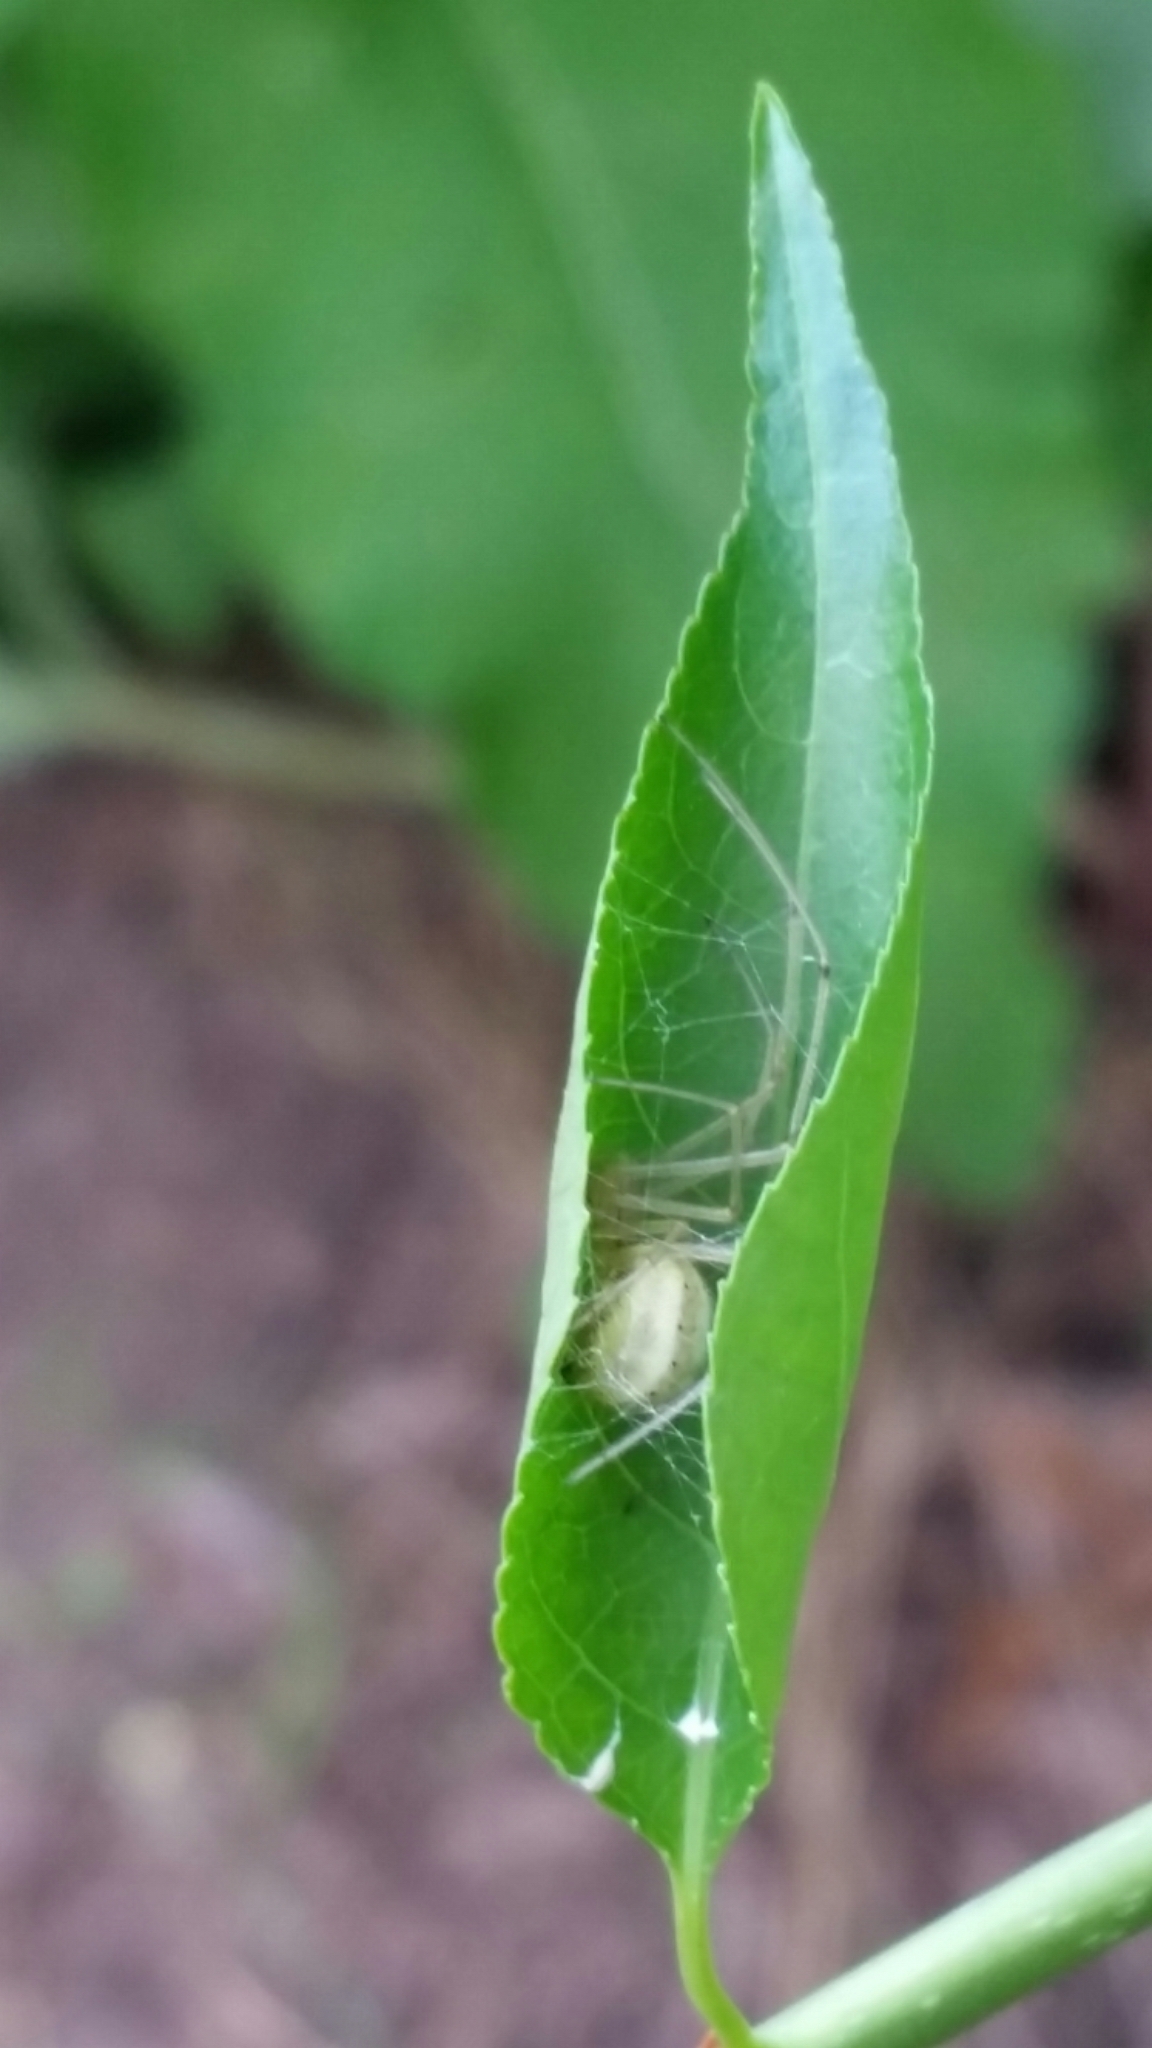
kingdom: Animalia
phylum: Arthropoda
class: Arachnida
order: Araneae
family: Araneidae
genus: Araneus
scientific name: Araneus thaddeus
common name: Lattice orbweaver
